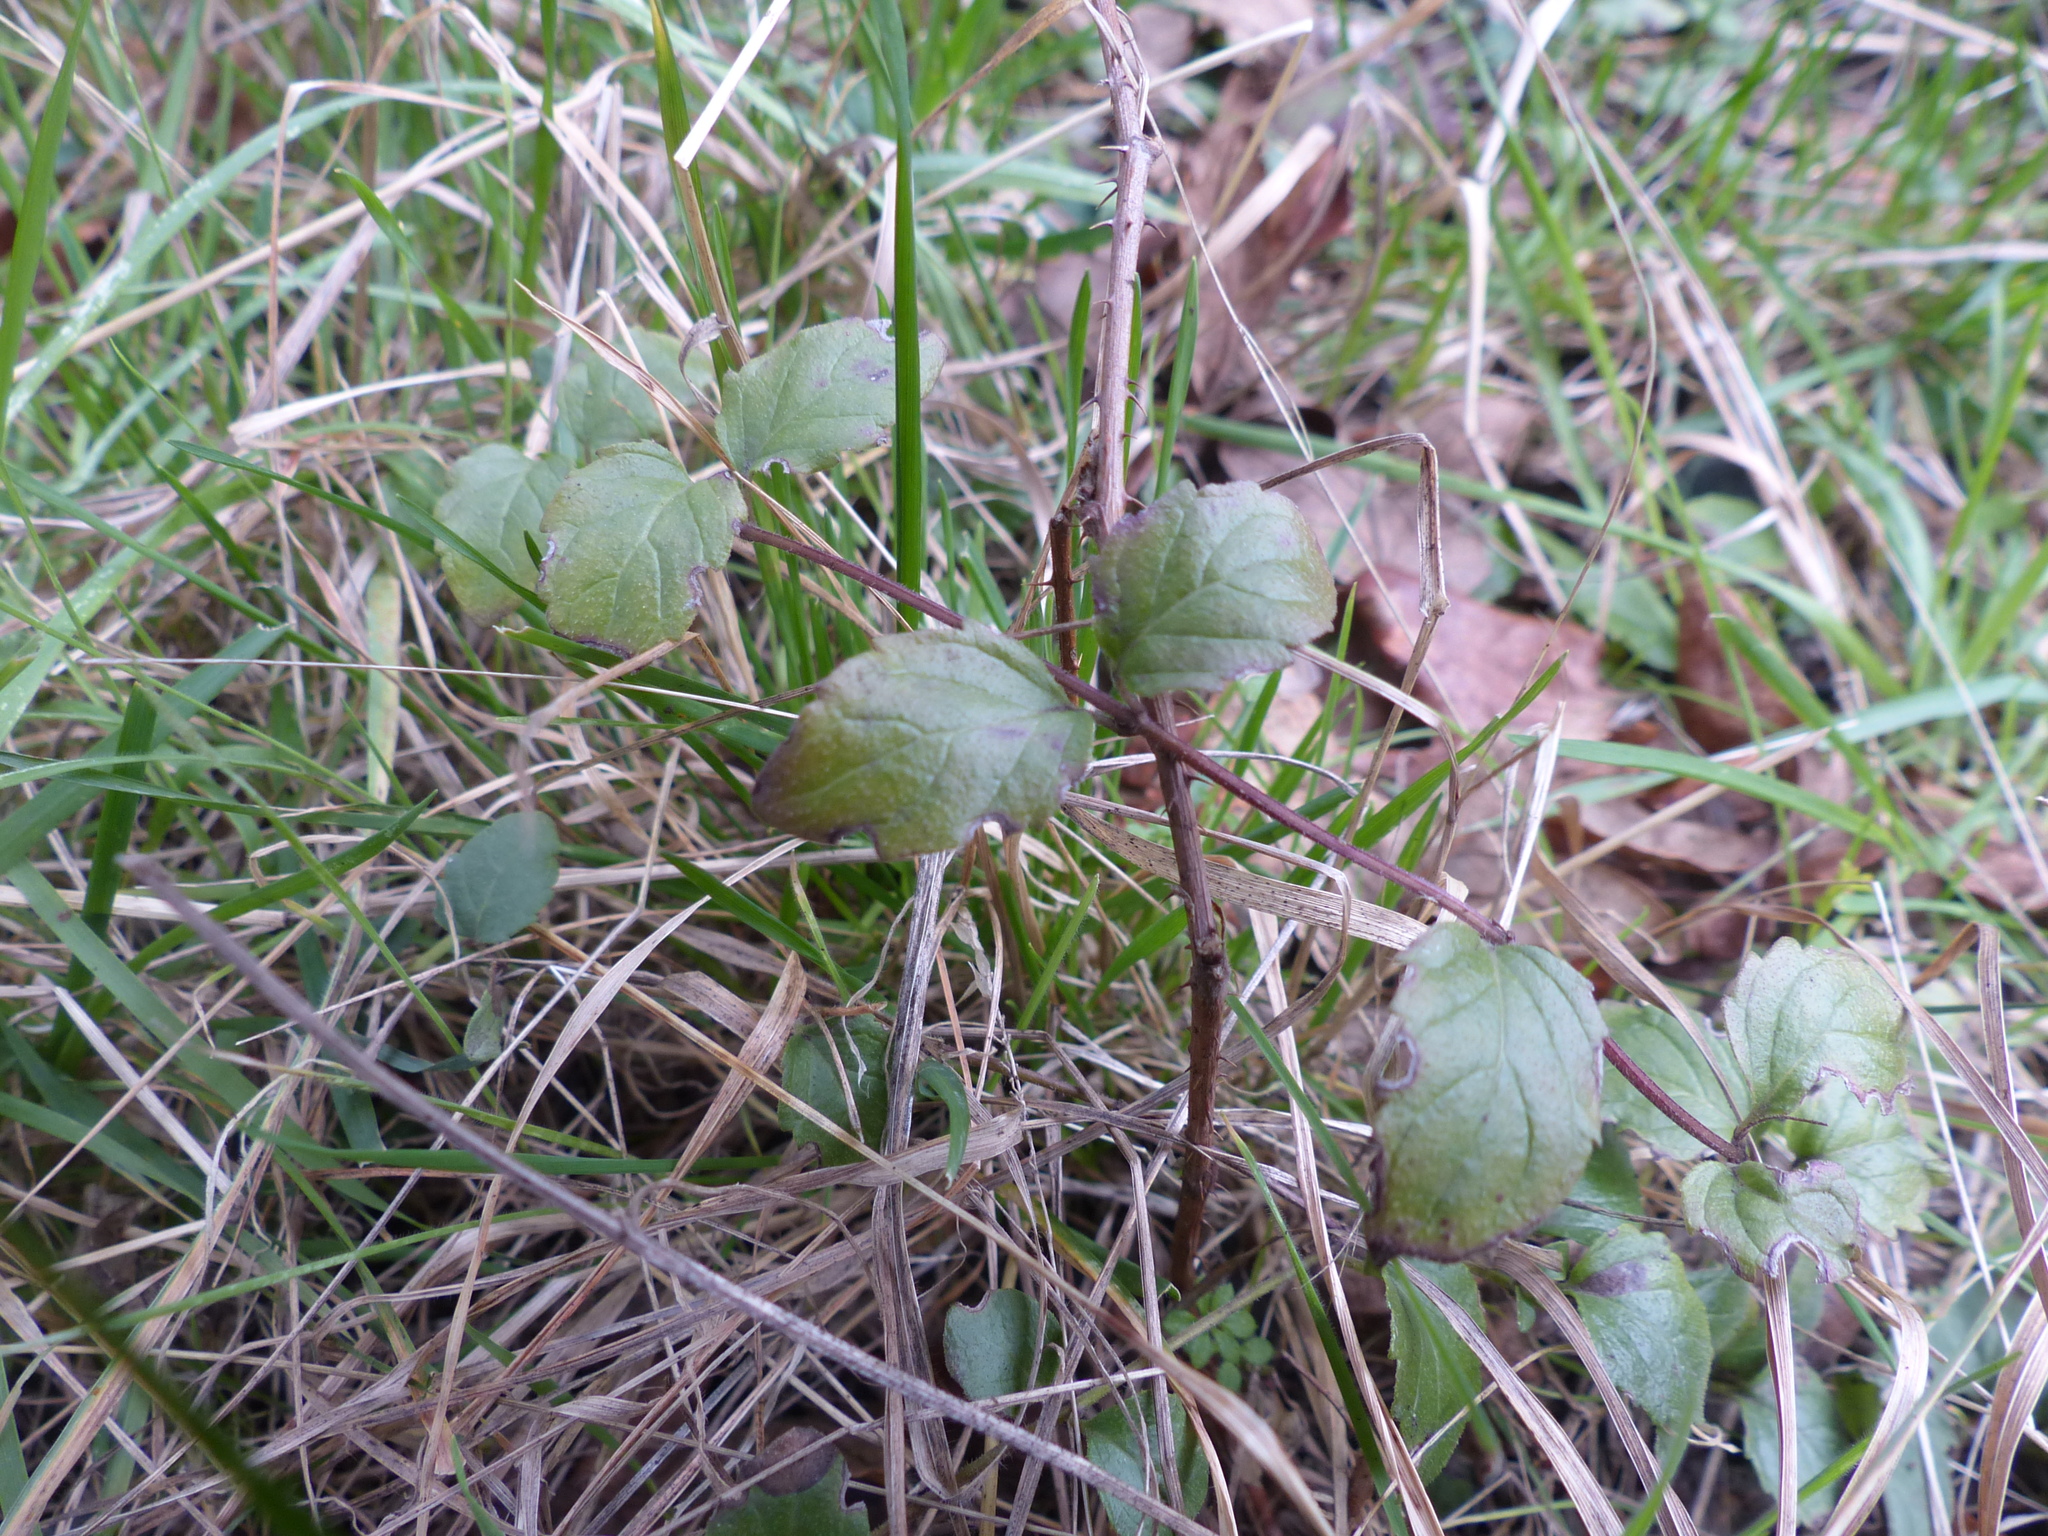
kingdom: Plantae
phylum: Tracheophyta
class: Magnoliopsida
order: Lamiales
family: Lamiaceae
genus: Micromeria
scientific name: Micromeria douglasii
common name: Yerba buena
